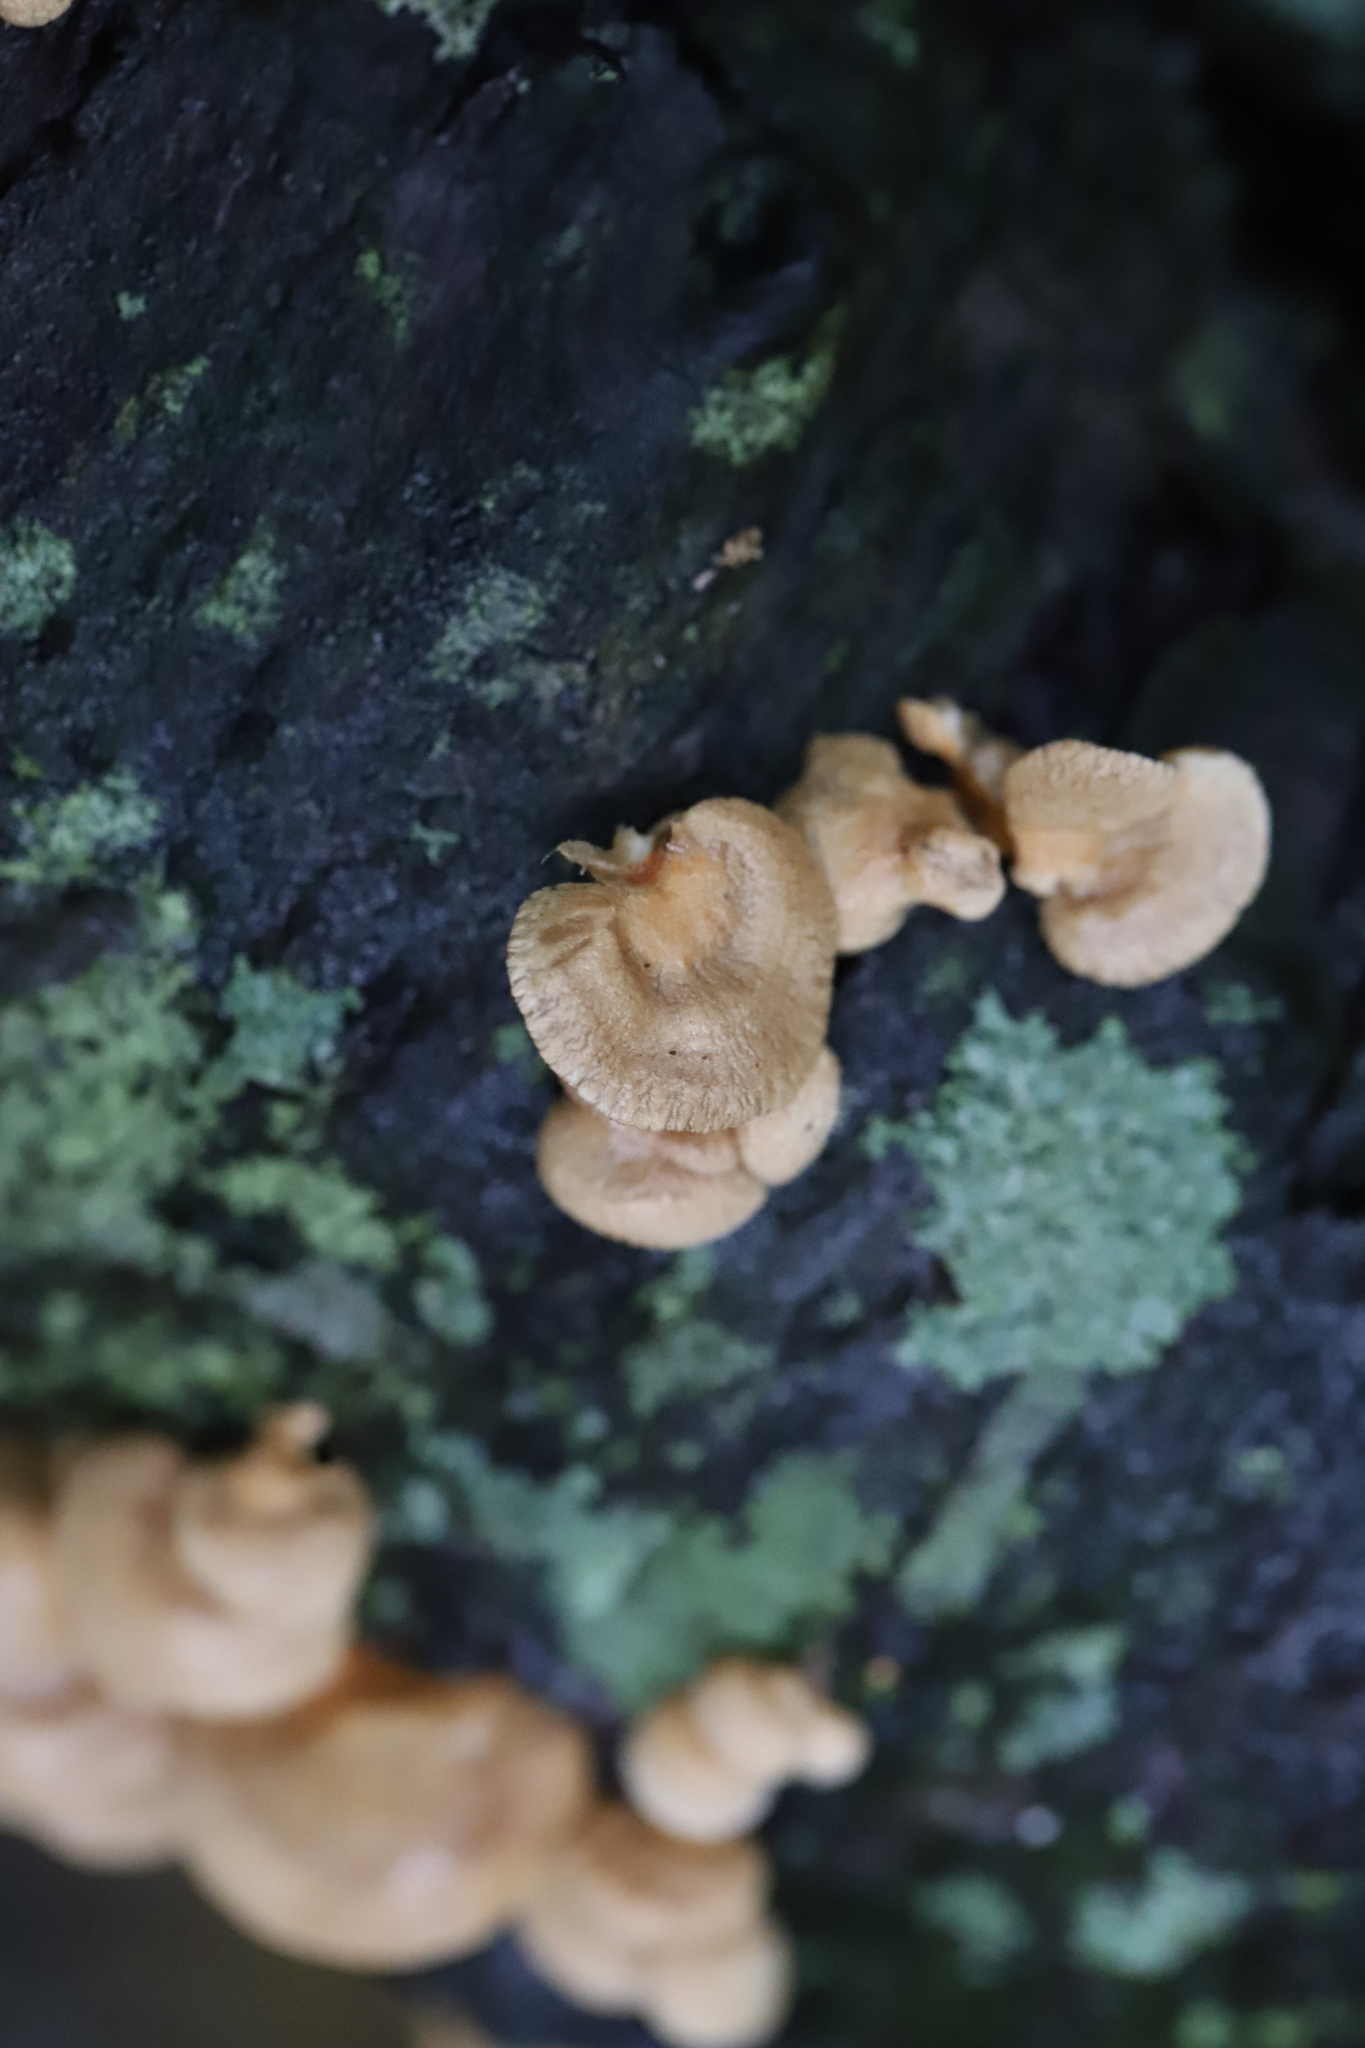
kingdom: Fungi
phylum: Basidiomycota
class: Agaricomycetes
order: Agaricales
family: Mycenaceae
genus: Panellus
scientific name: Panellus stipticus
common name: Bitter oysterling
